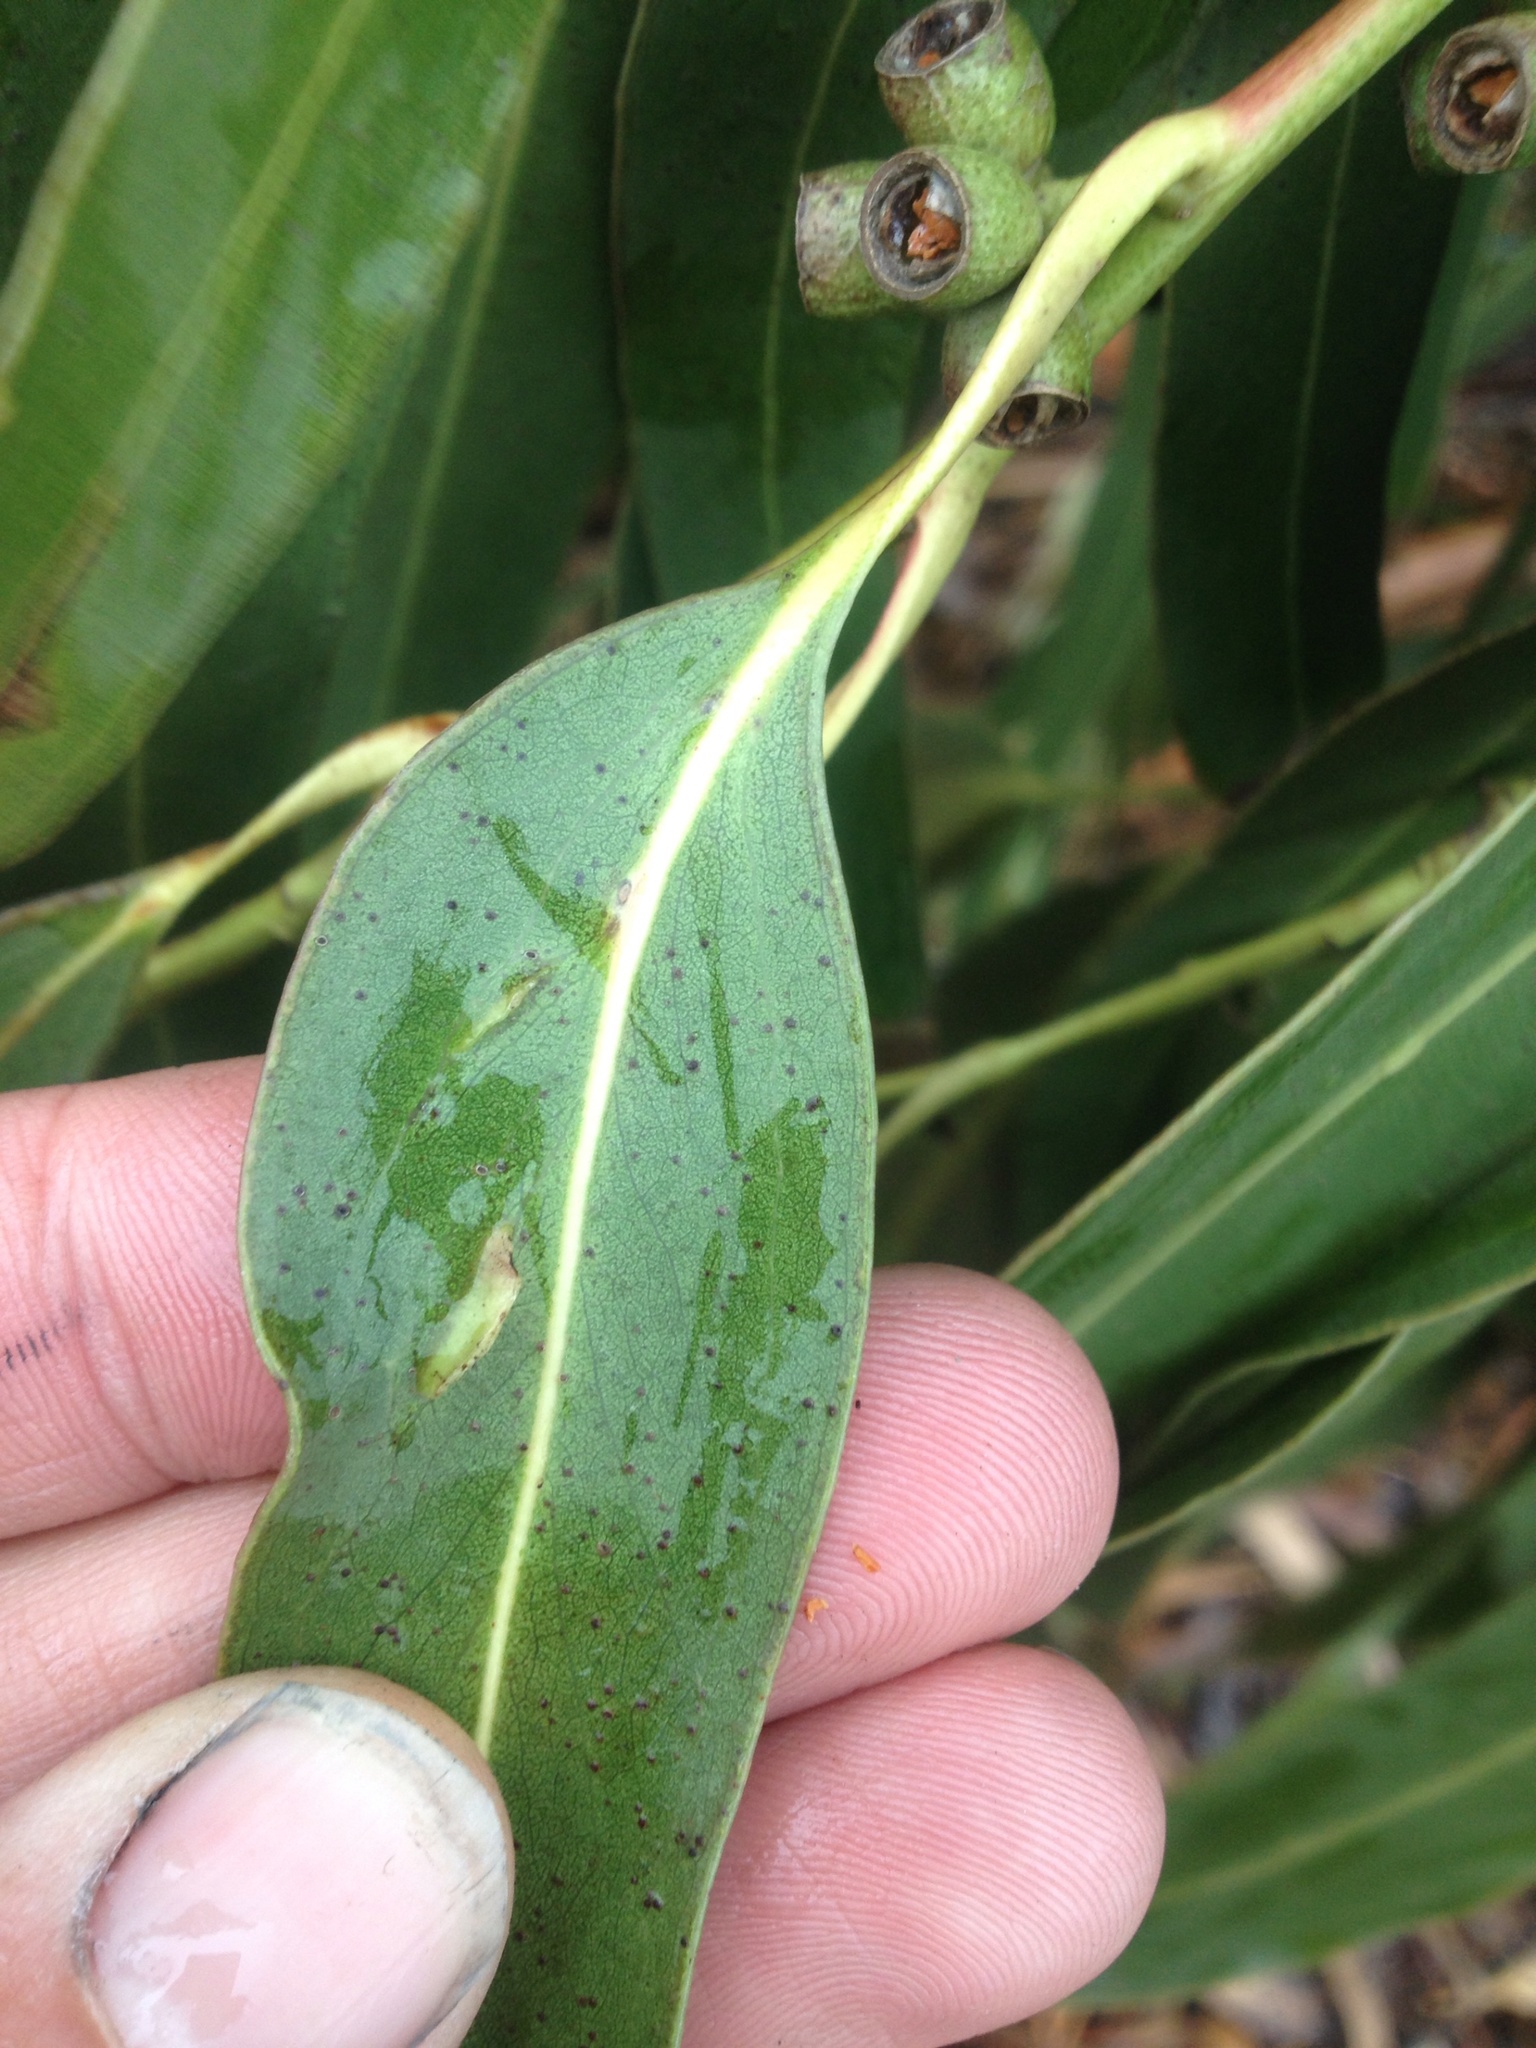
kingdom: Animalia
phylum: Arthropoda
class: Insecta
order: Hymenoptera
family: Pteromalidae
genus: Nambouria
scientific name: Nambouria xanthops
